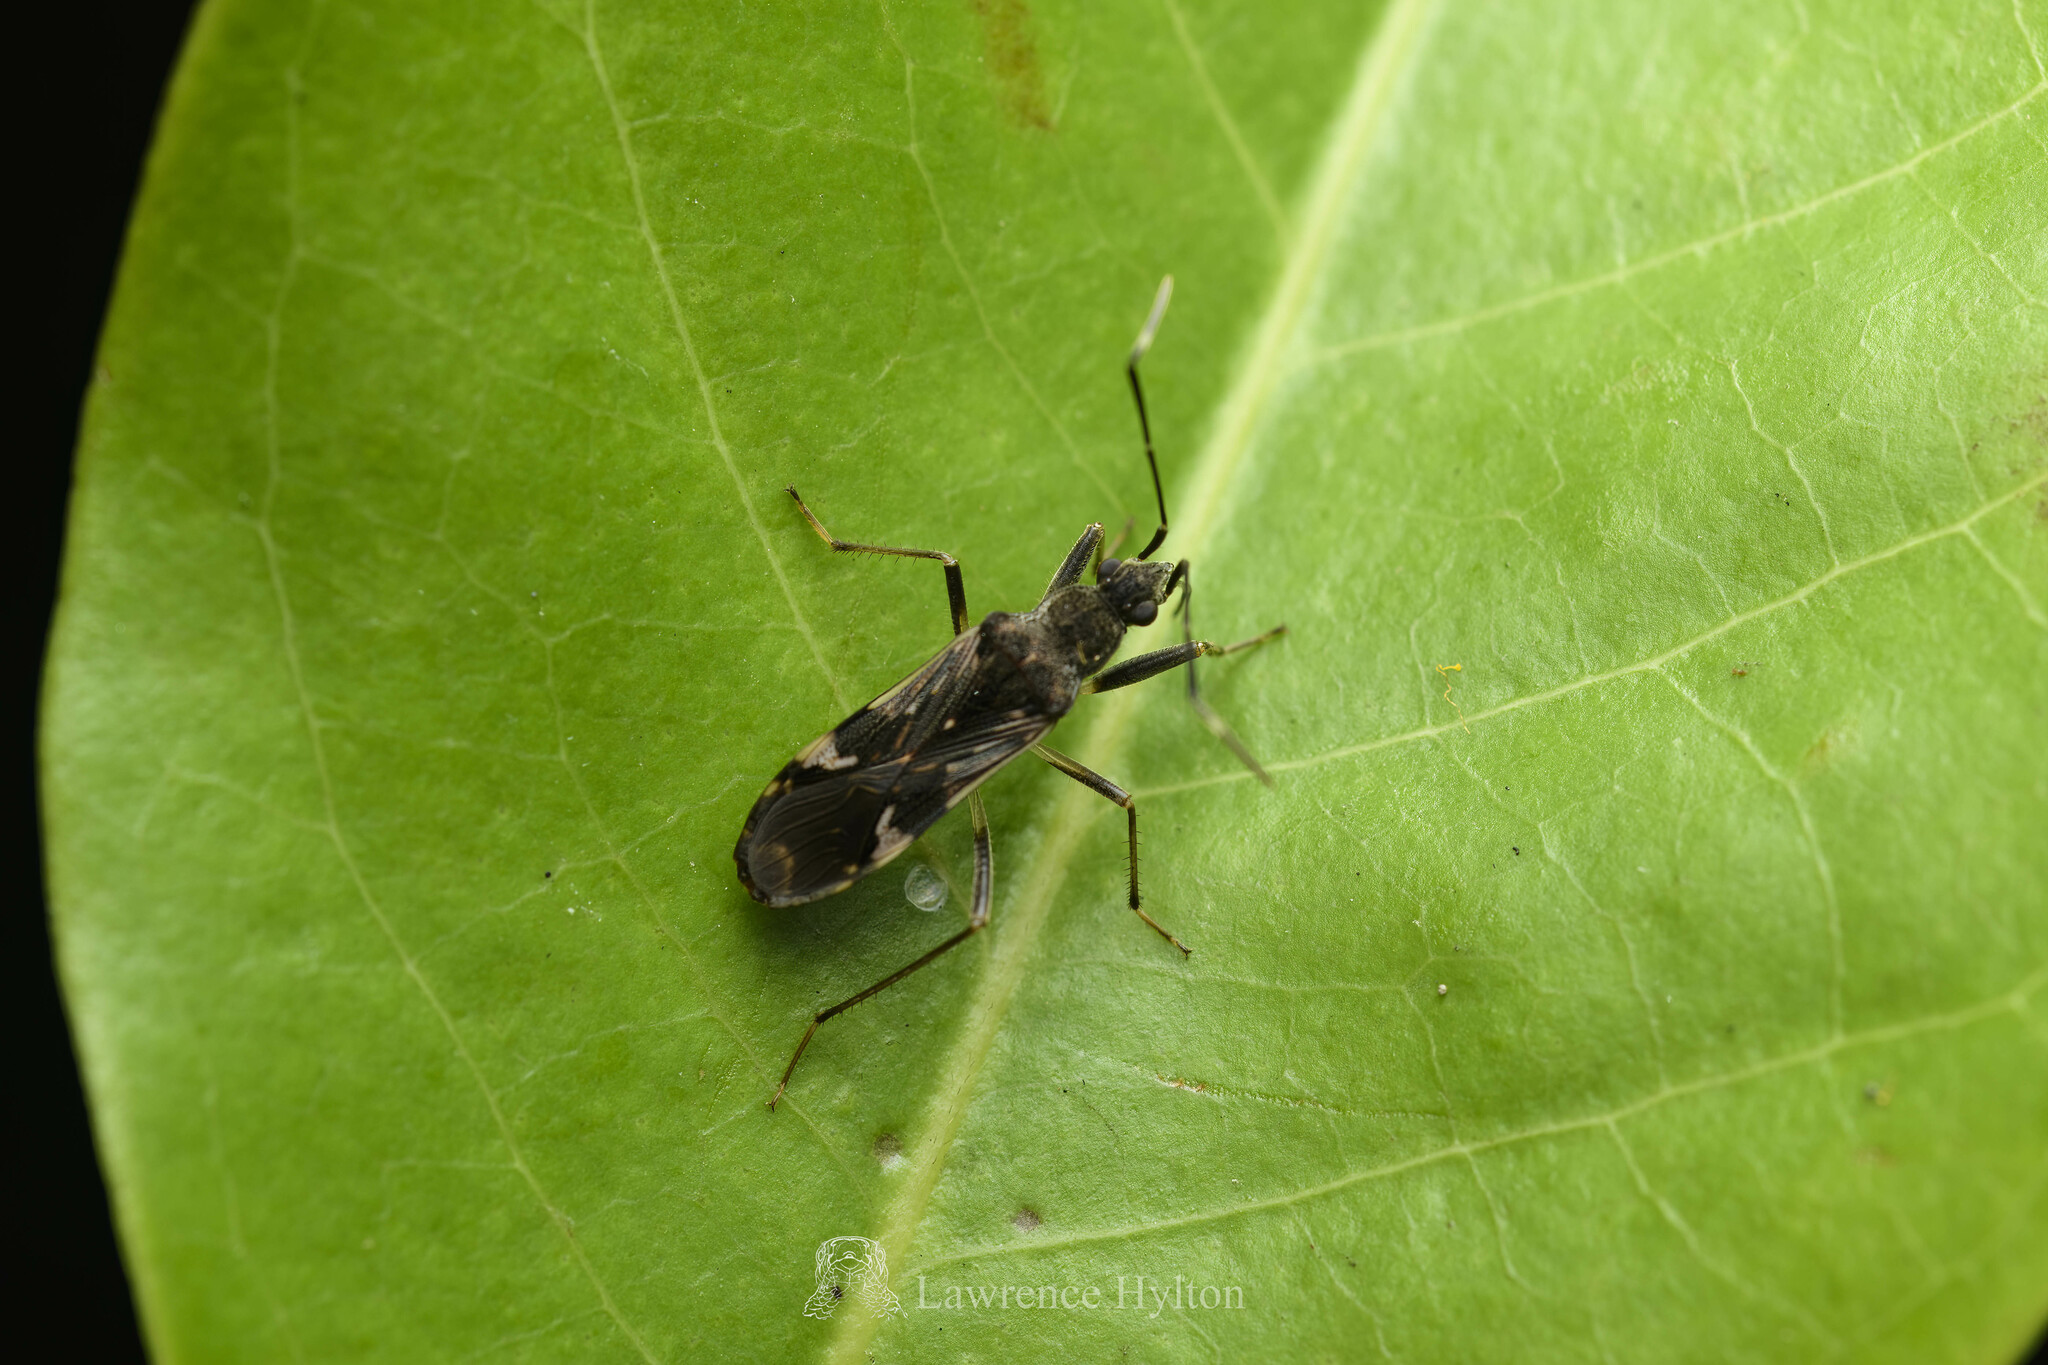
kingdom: Animalia
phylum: Arthropoda
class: Insecta
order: Hemiptera
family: Rhyparochromidae
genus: Metochus
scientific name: Metochus hainanensis
